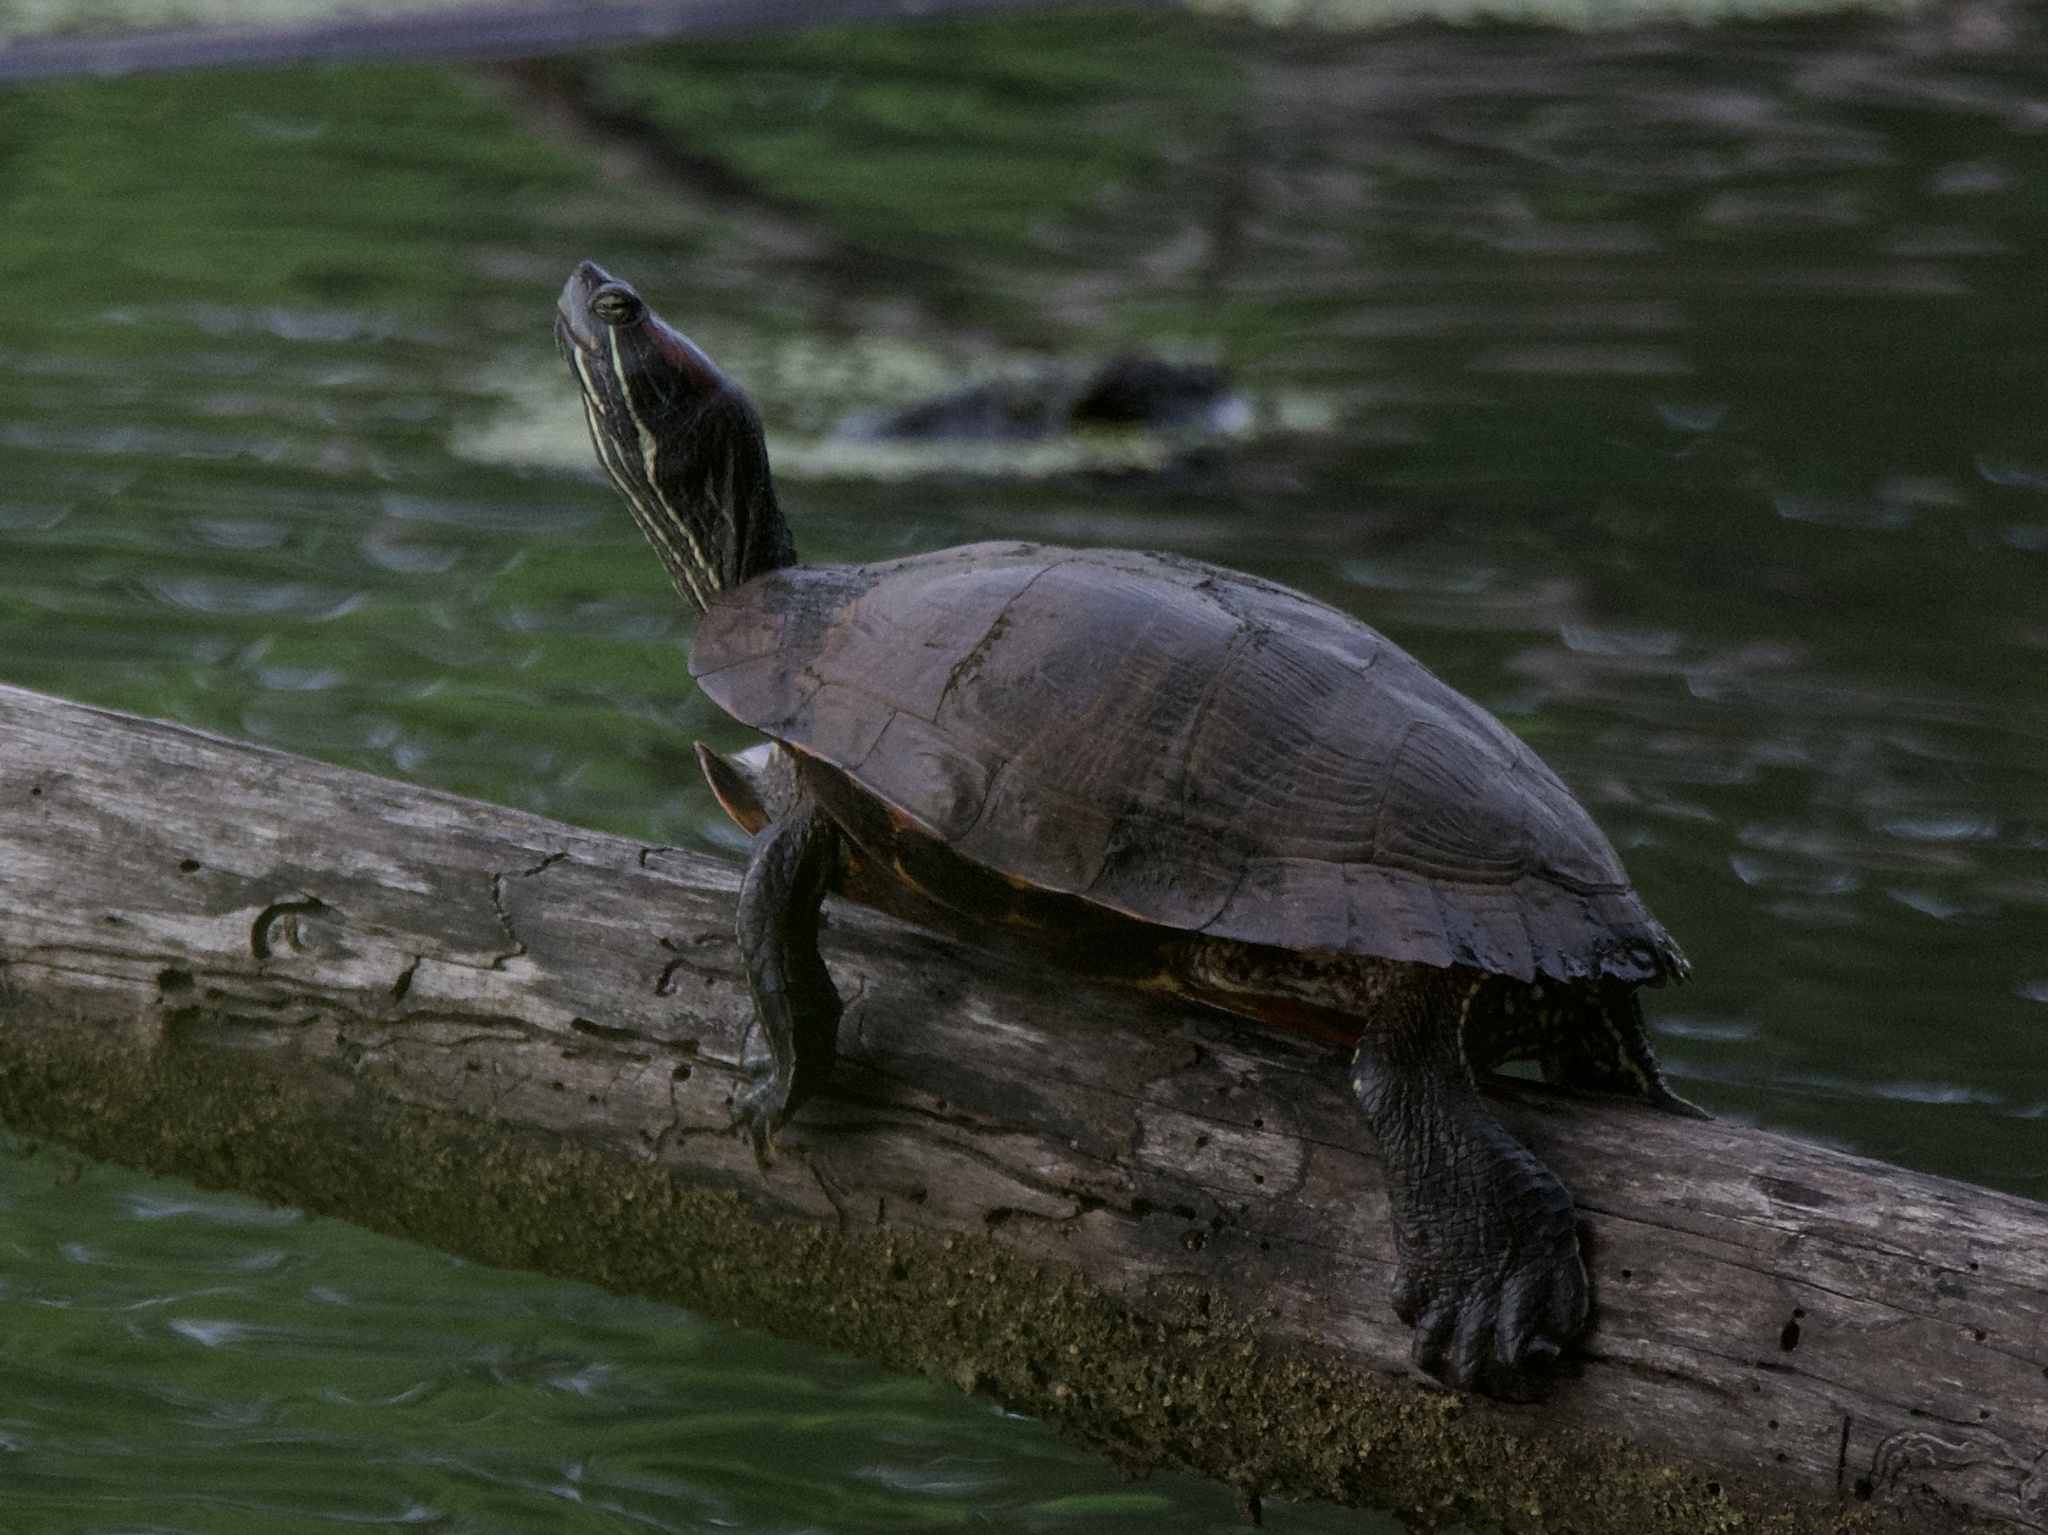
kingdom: Animalia
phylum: Chordata
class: Testudines
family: Emydidae
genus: Trachemys
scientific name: Trachemys scripta
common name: Slider
